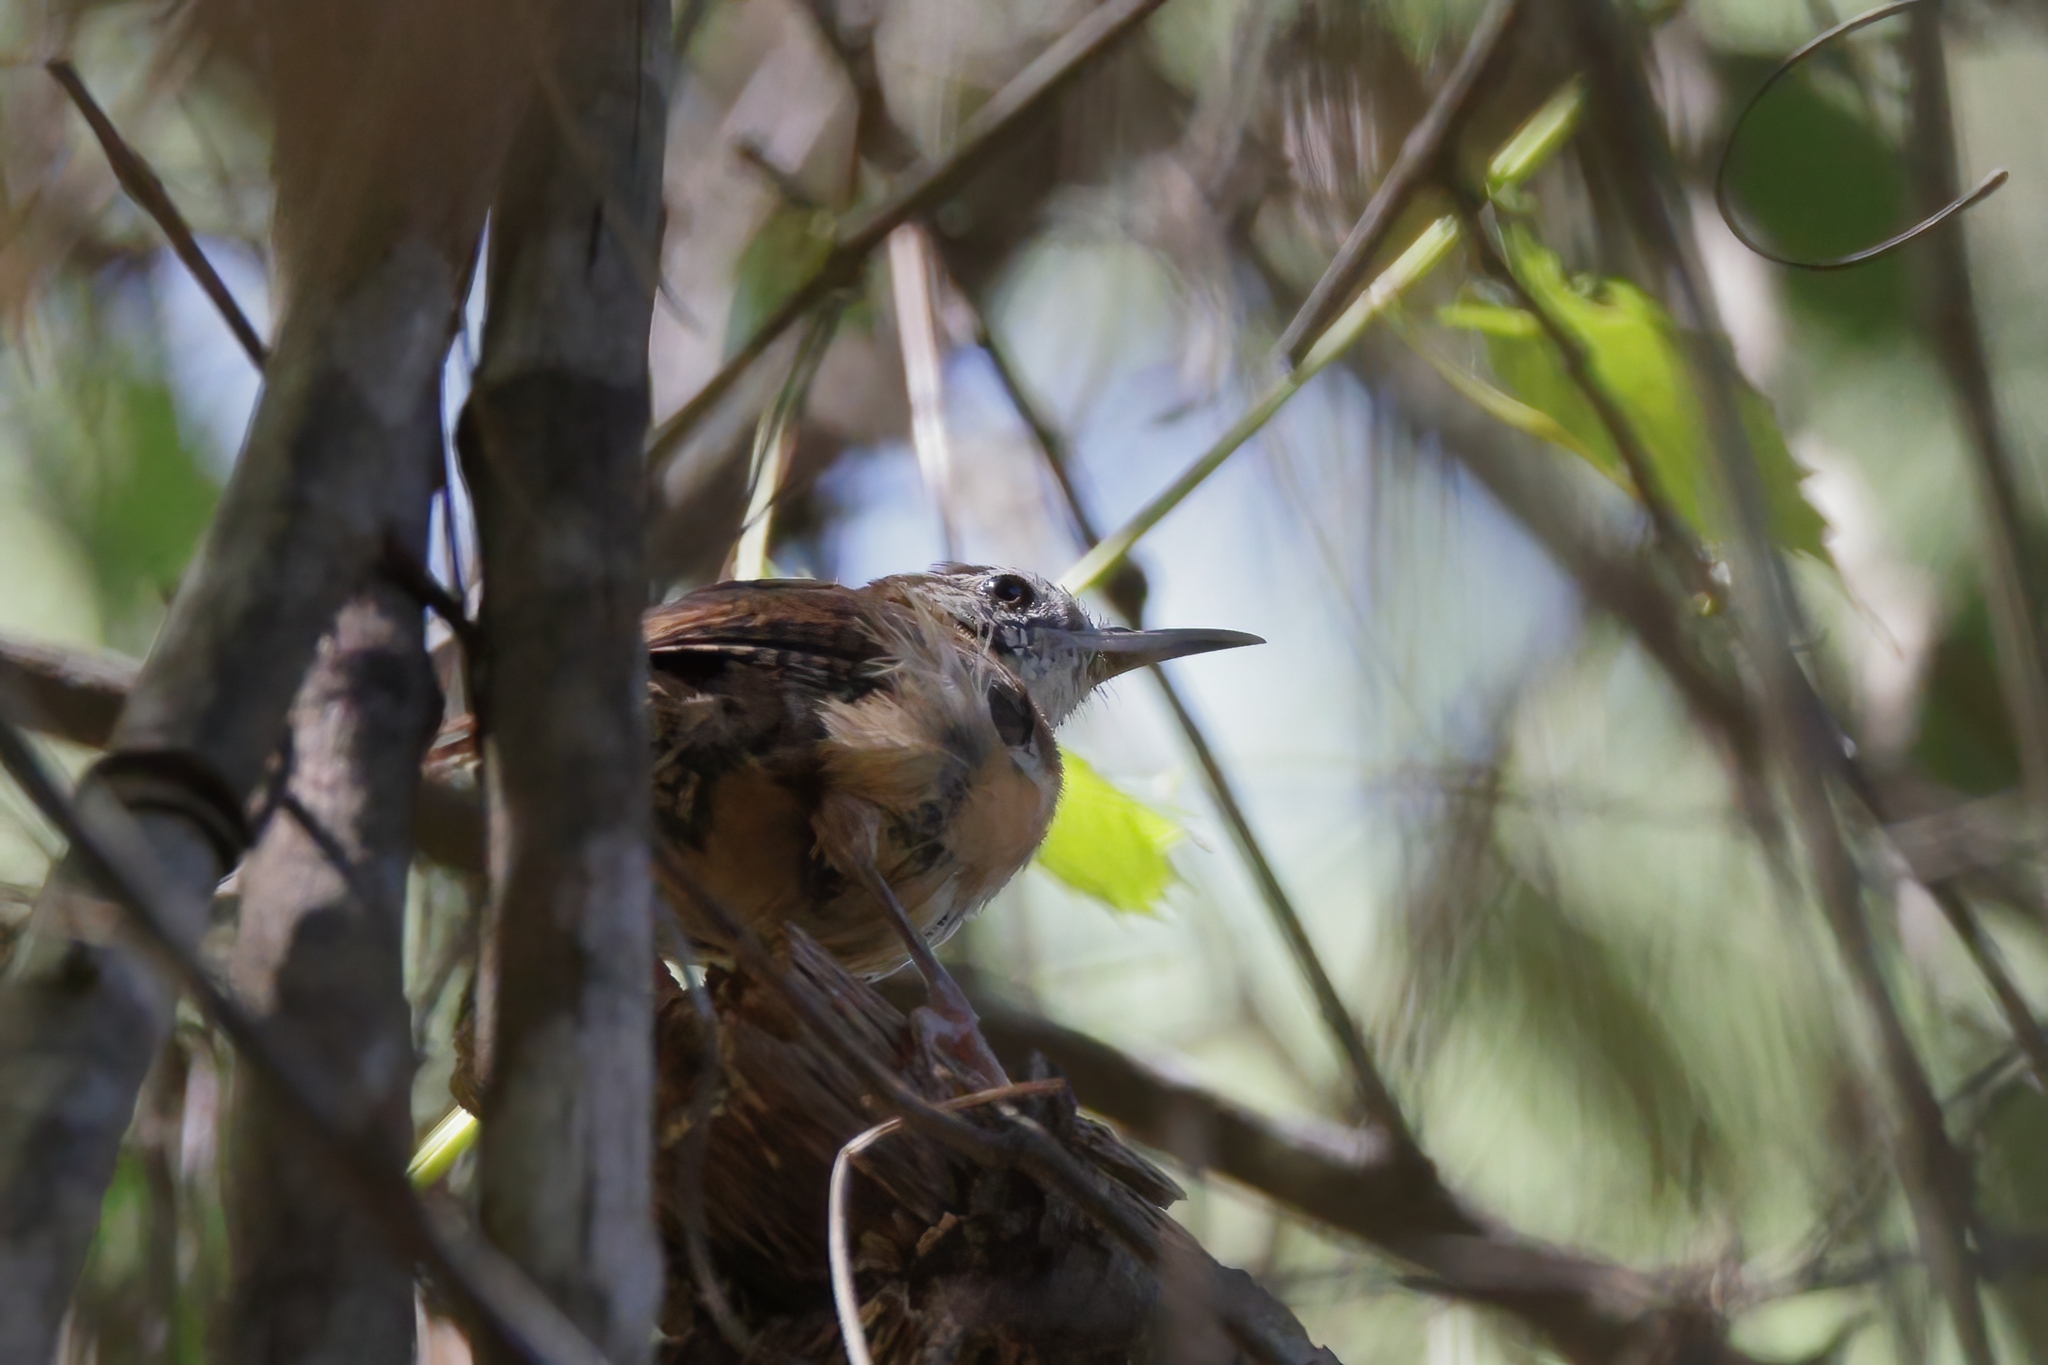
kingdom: Animalia
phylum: Chordata
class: Aves
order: Passeriformes
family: Troglodytidae
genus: Thryothorus
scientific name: Thryothorus ludovicianus
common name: Carolina wren
